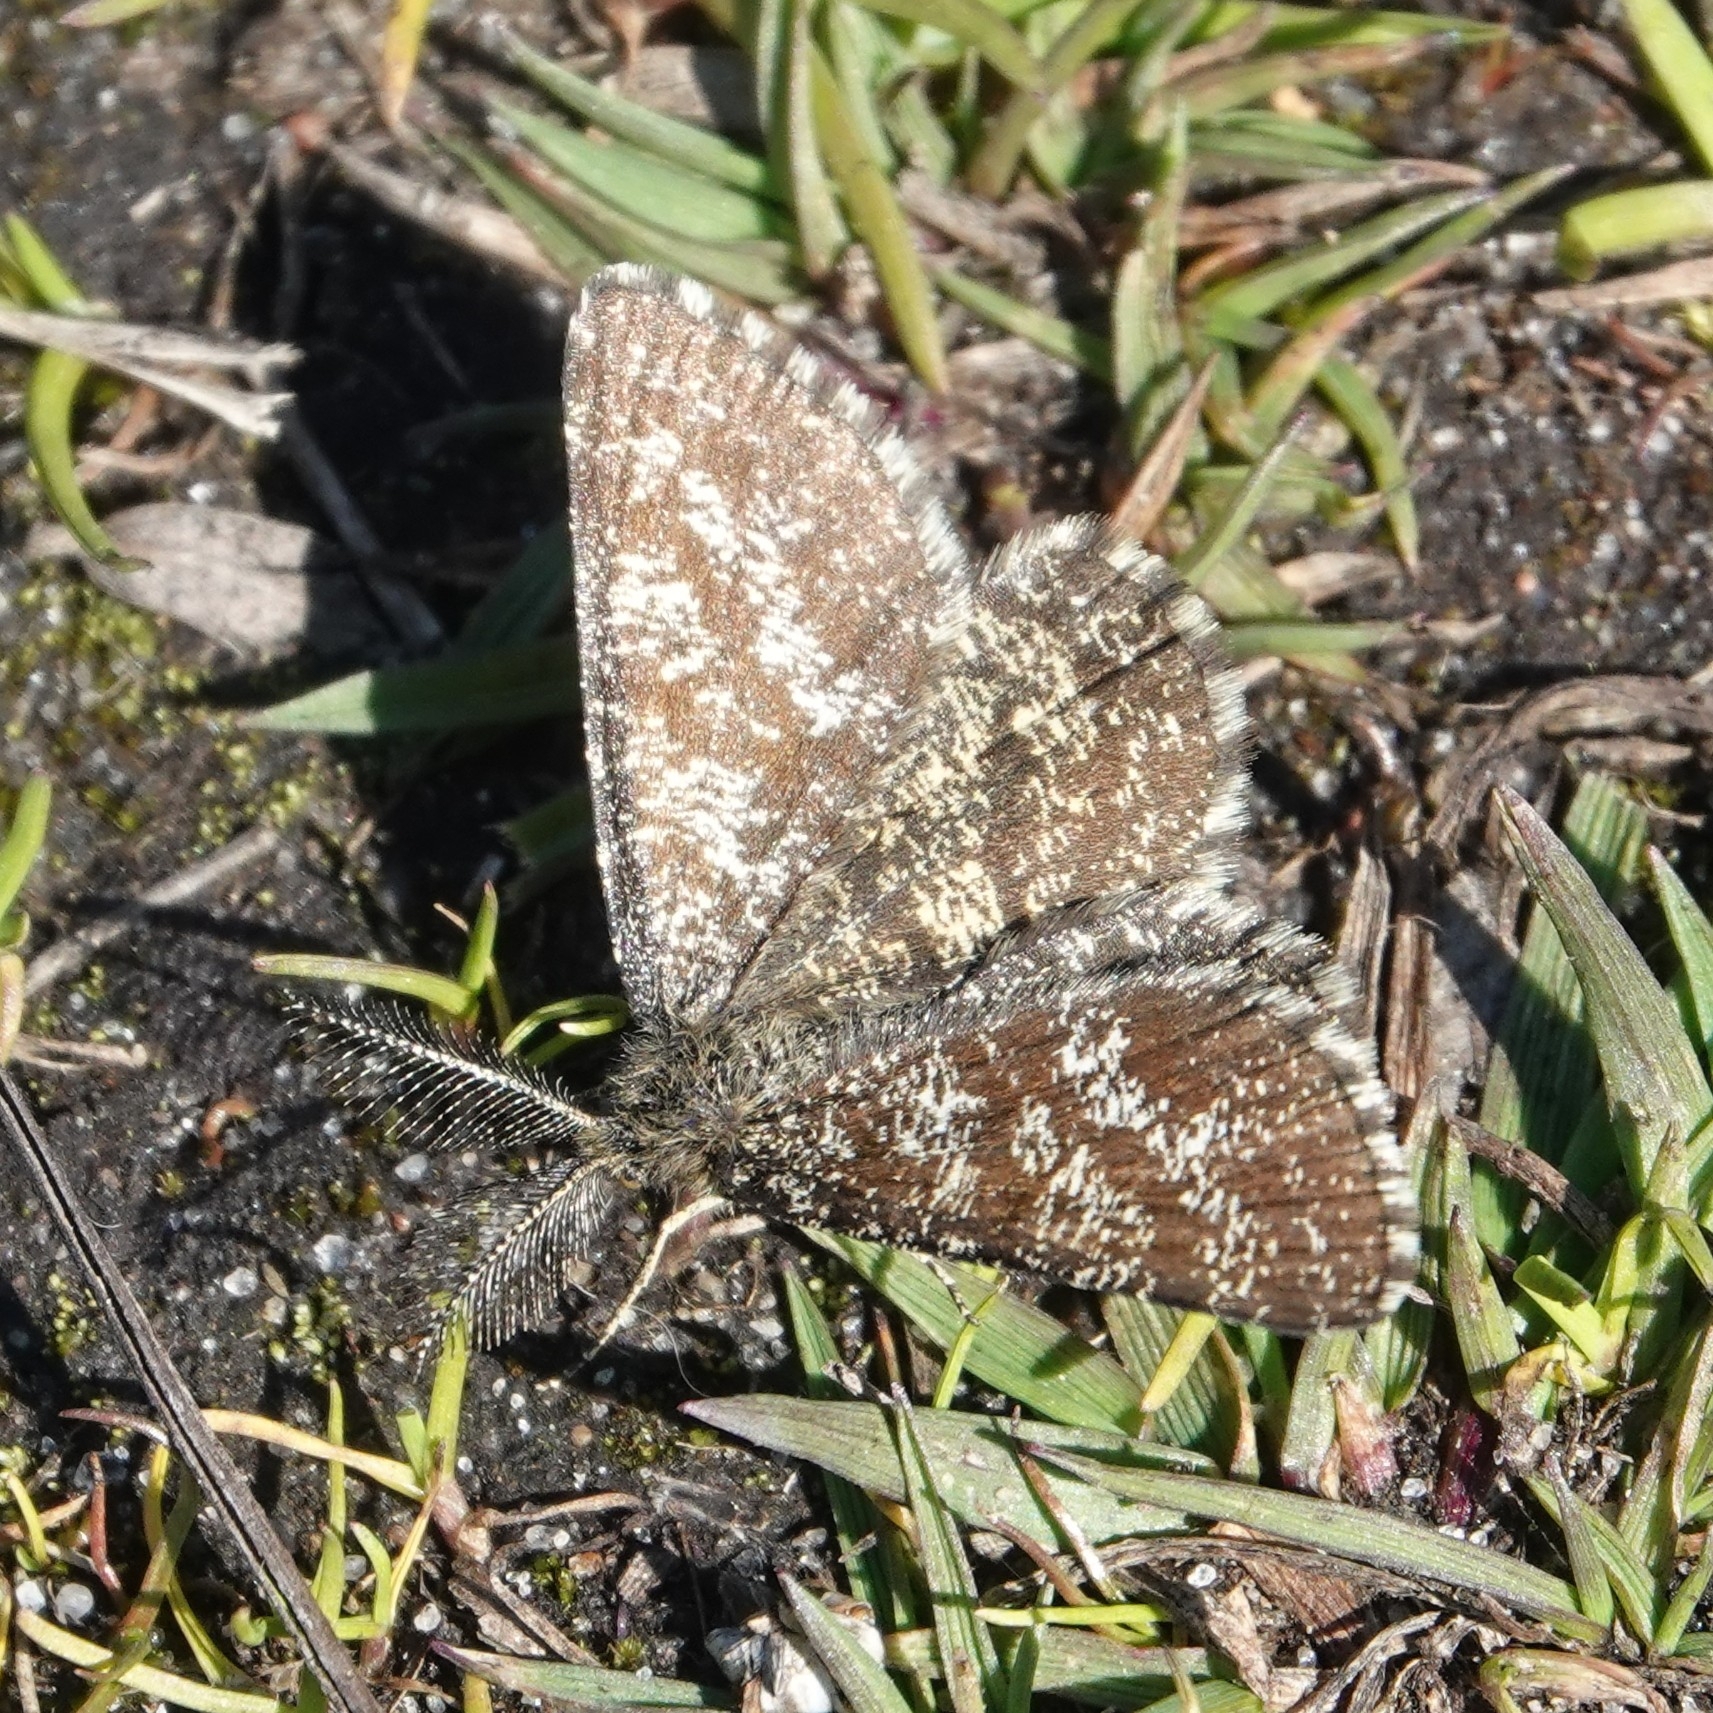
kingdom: Animalia
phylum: Arthropoda
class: Insecta
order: Lepidoptera
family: Geometridae
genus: Ematurga
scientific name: Ematurga atomaria
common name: Common heath
